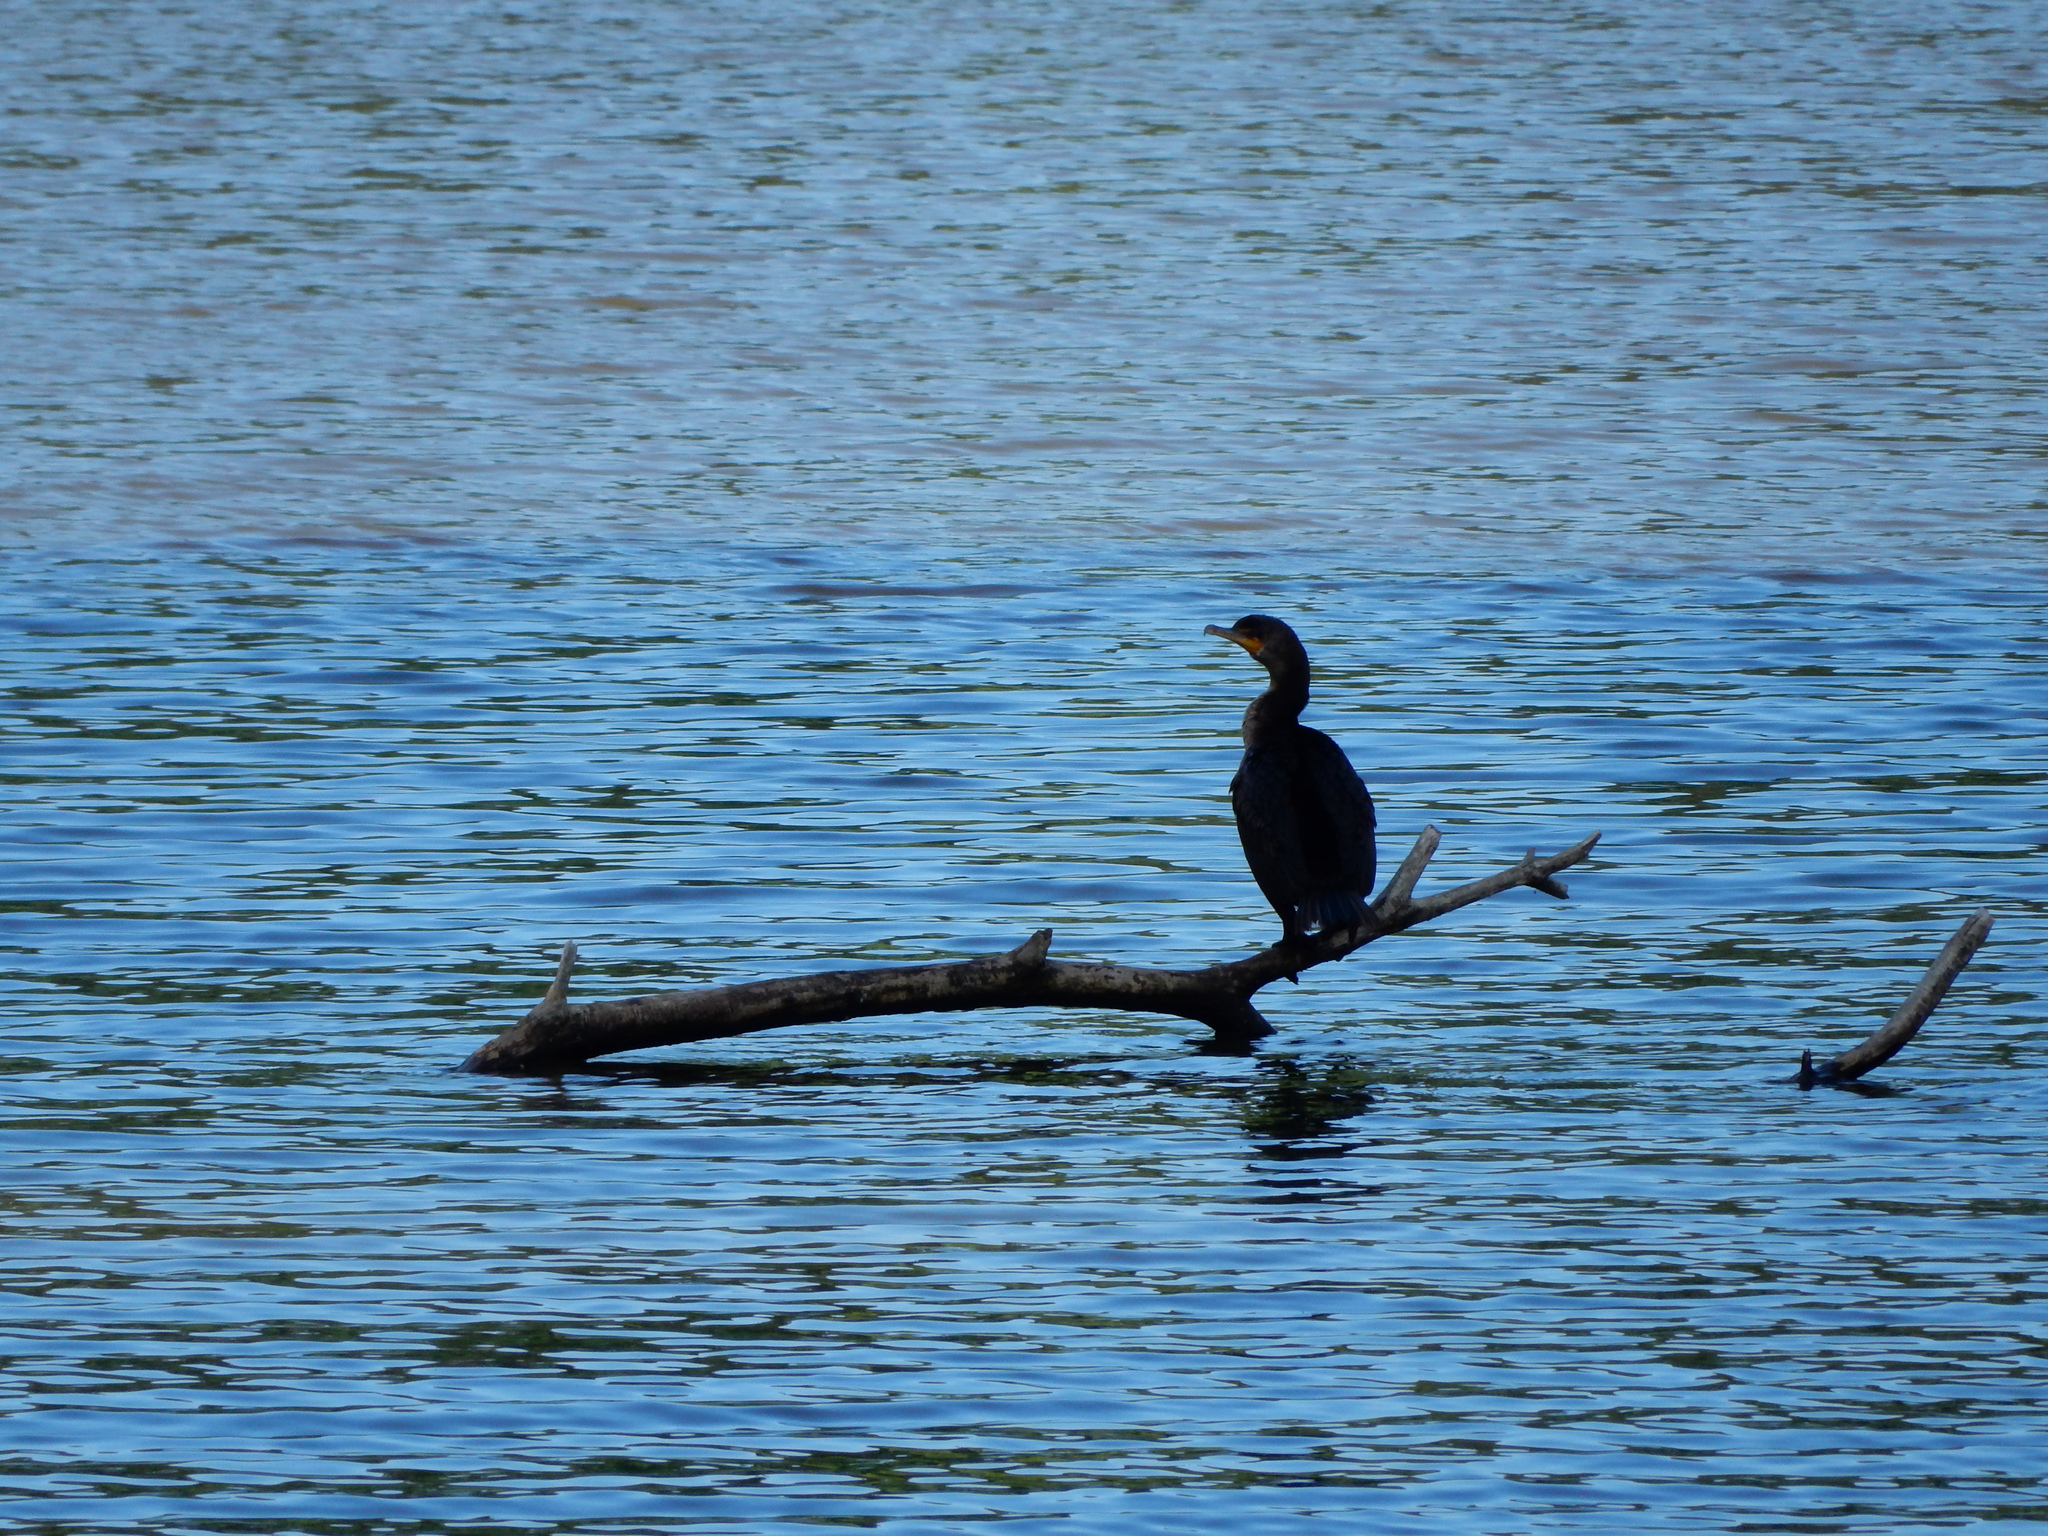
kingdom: Animalia
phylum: Chordata
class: Aves
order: Suliformes
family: Phalacrocoracidae
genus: Phalacrocorax
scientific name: Phalacrocorax auritus
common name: Double-crested cormorant
